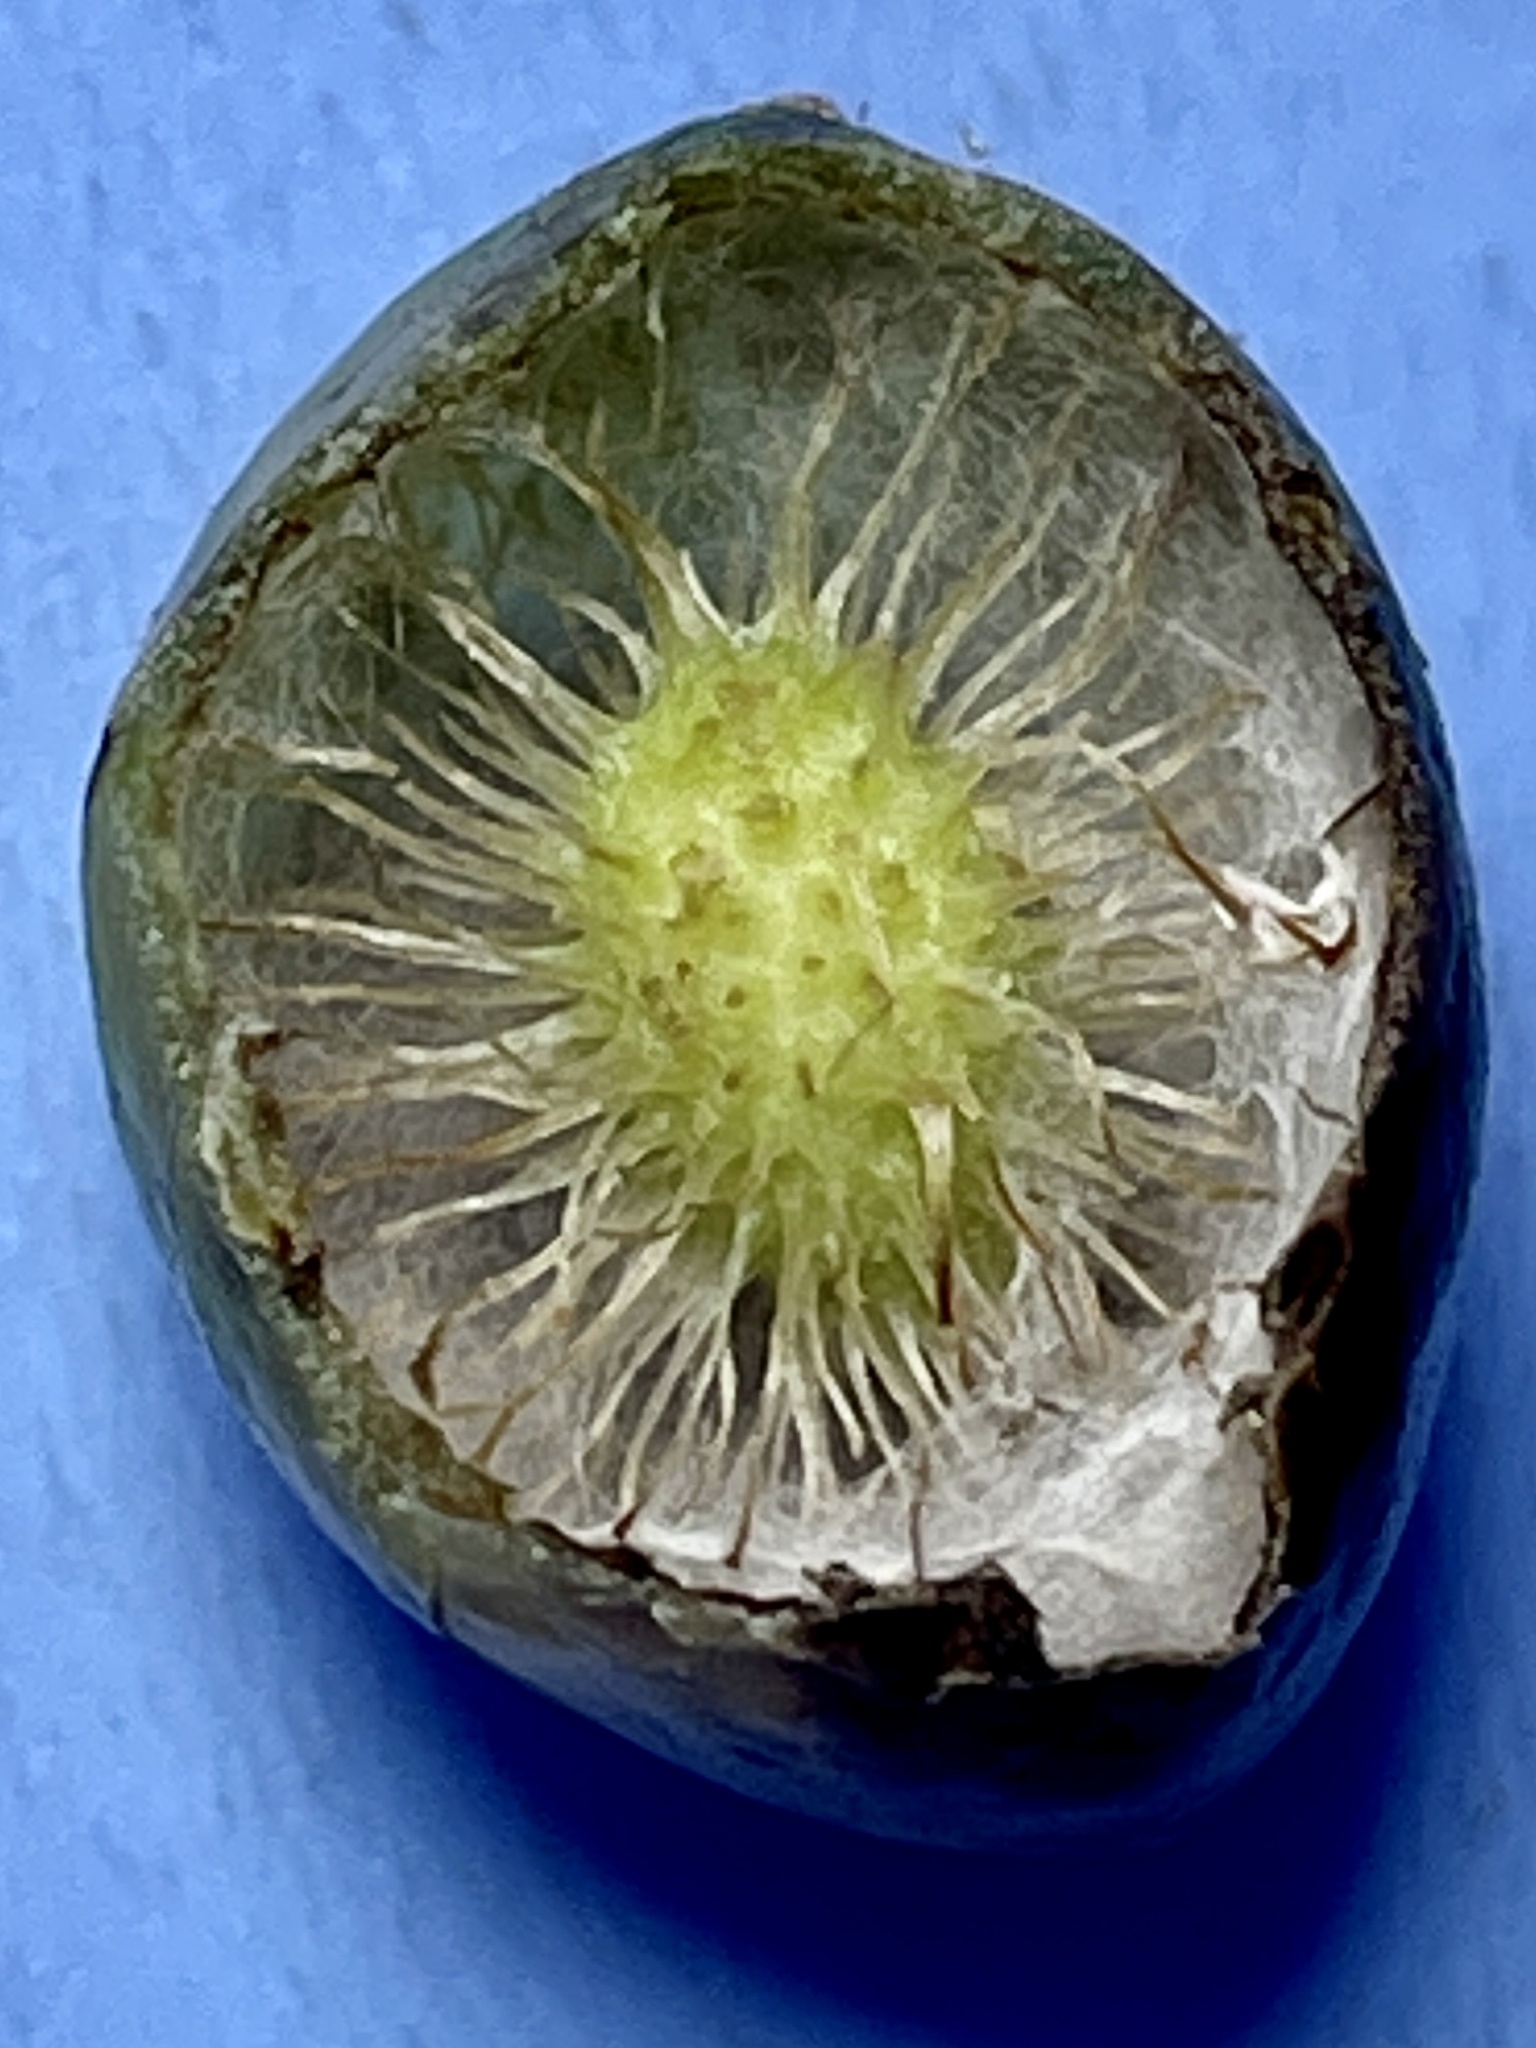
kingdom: Animalia
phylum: Arthropoda
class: Insecta
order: Hymenoptera
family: Cynipidae
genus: Amphibolips
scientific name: Amphibolips
